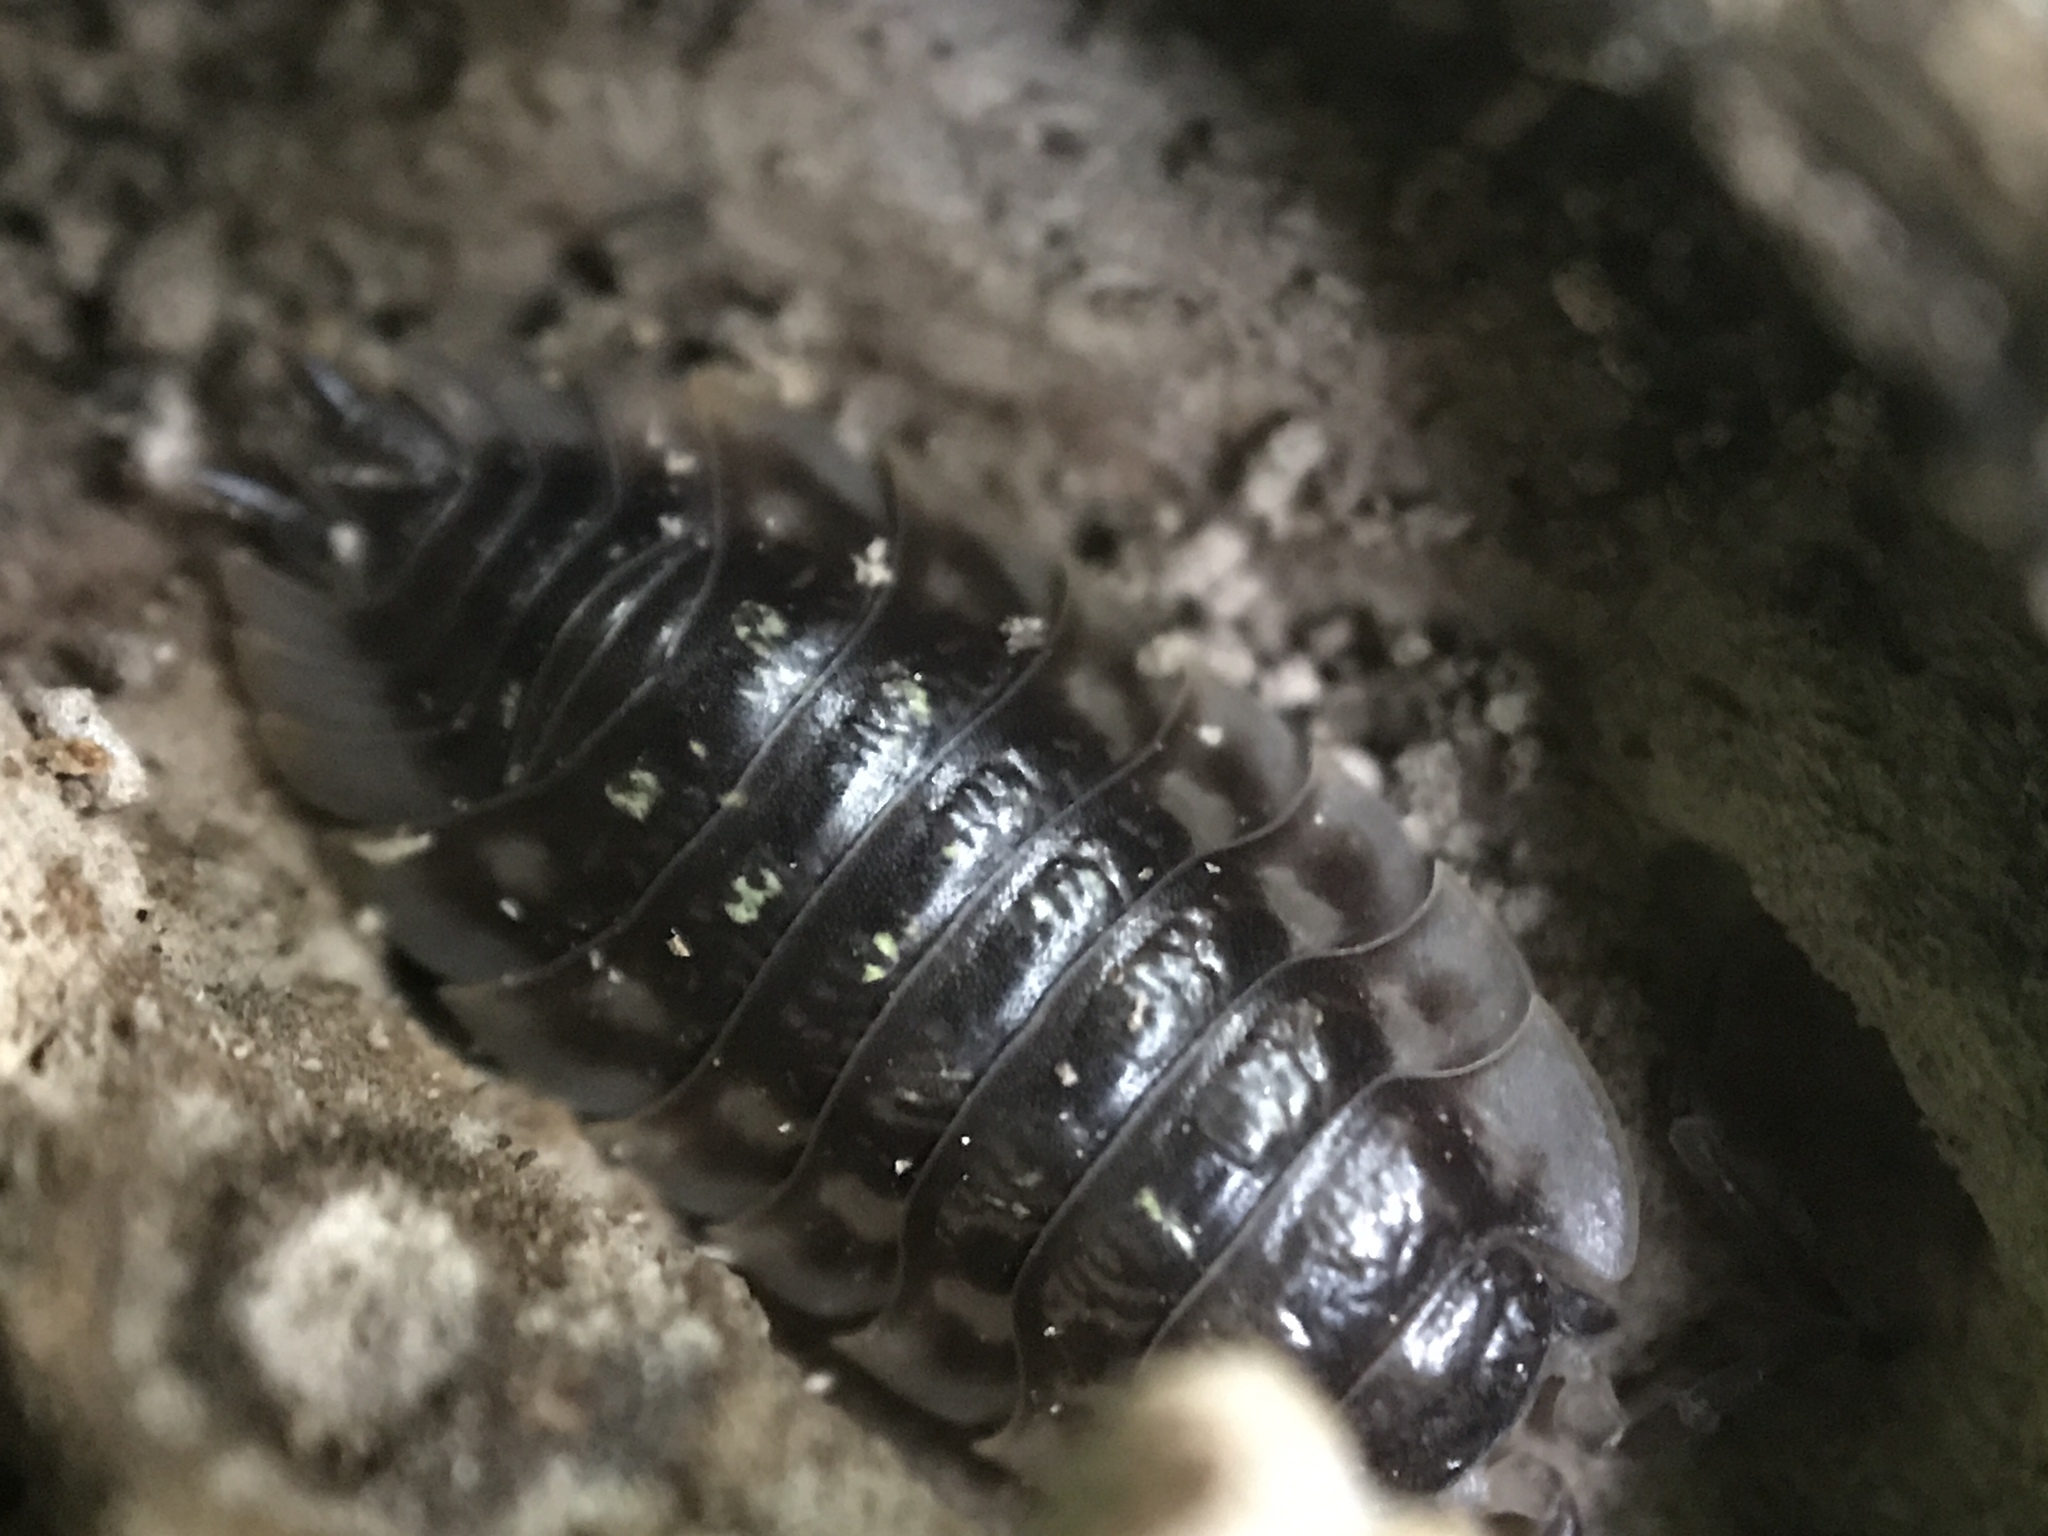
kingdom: Animalia
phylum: Arthropoda
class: Malacostraca
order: Isopoda
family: Oniscidae
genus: Oniscus
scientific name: Oniscus asellus
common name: Common shiny woodlouse
